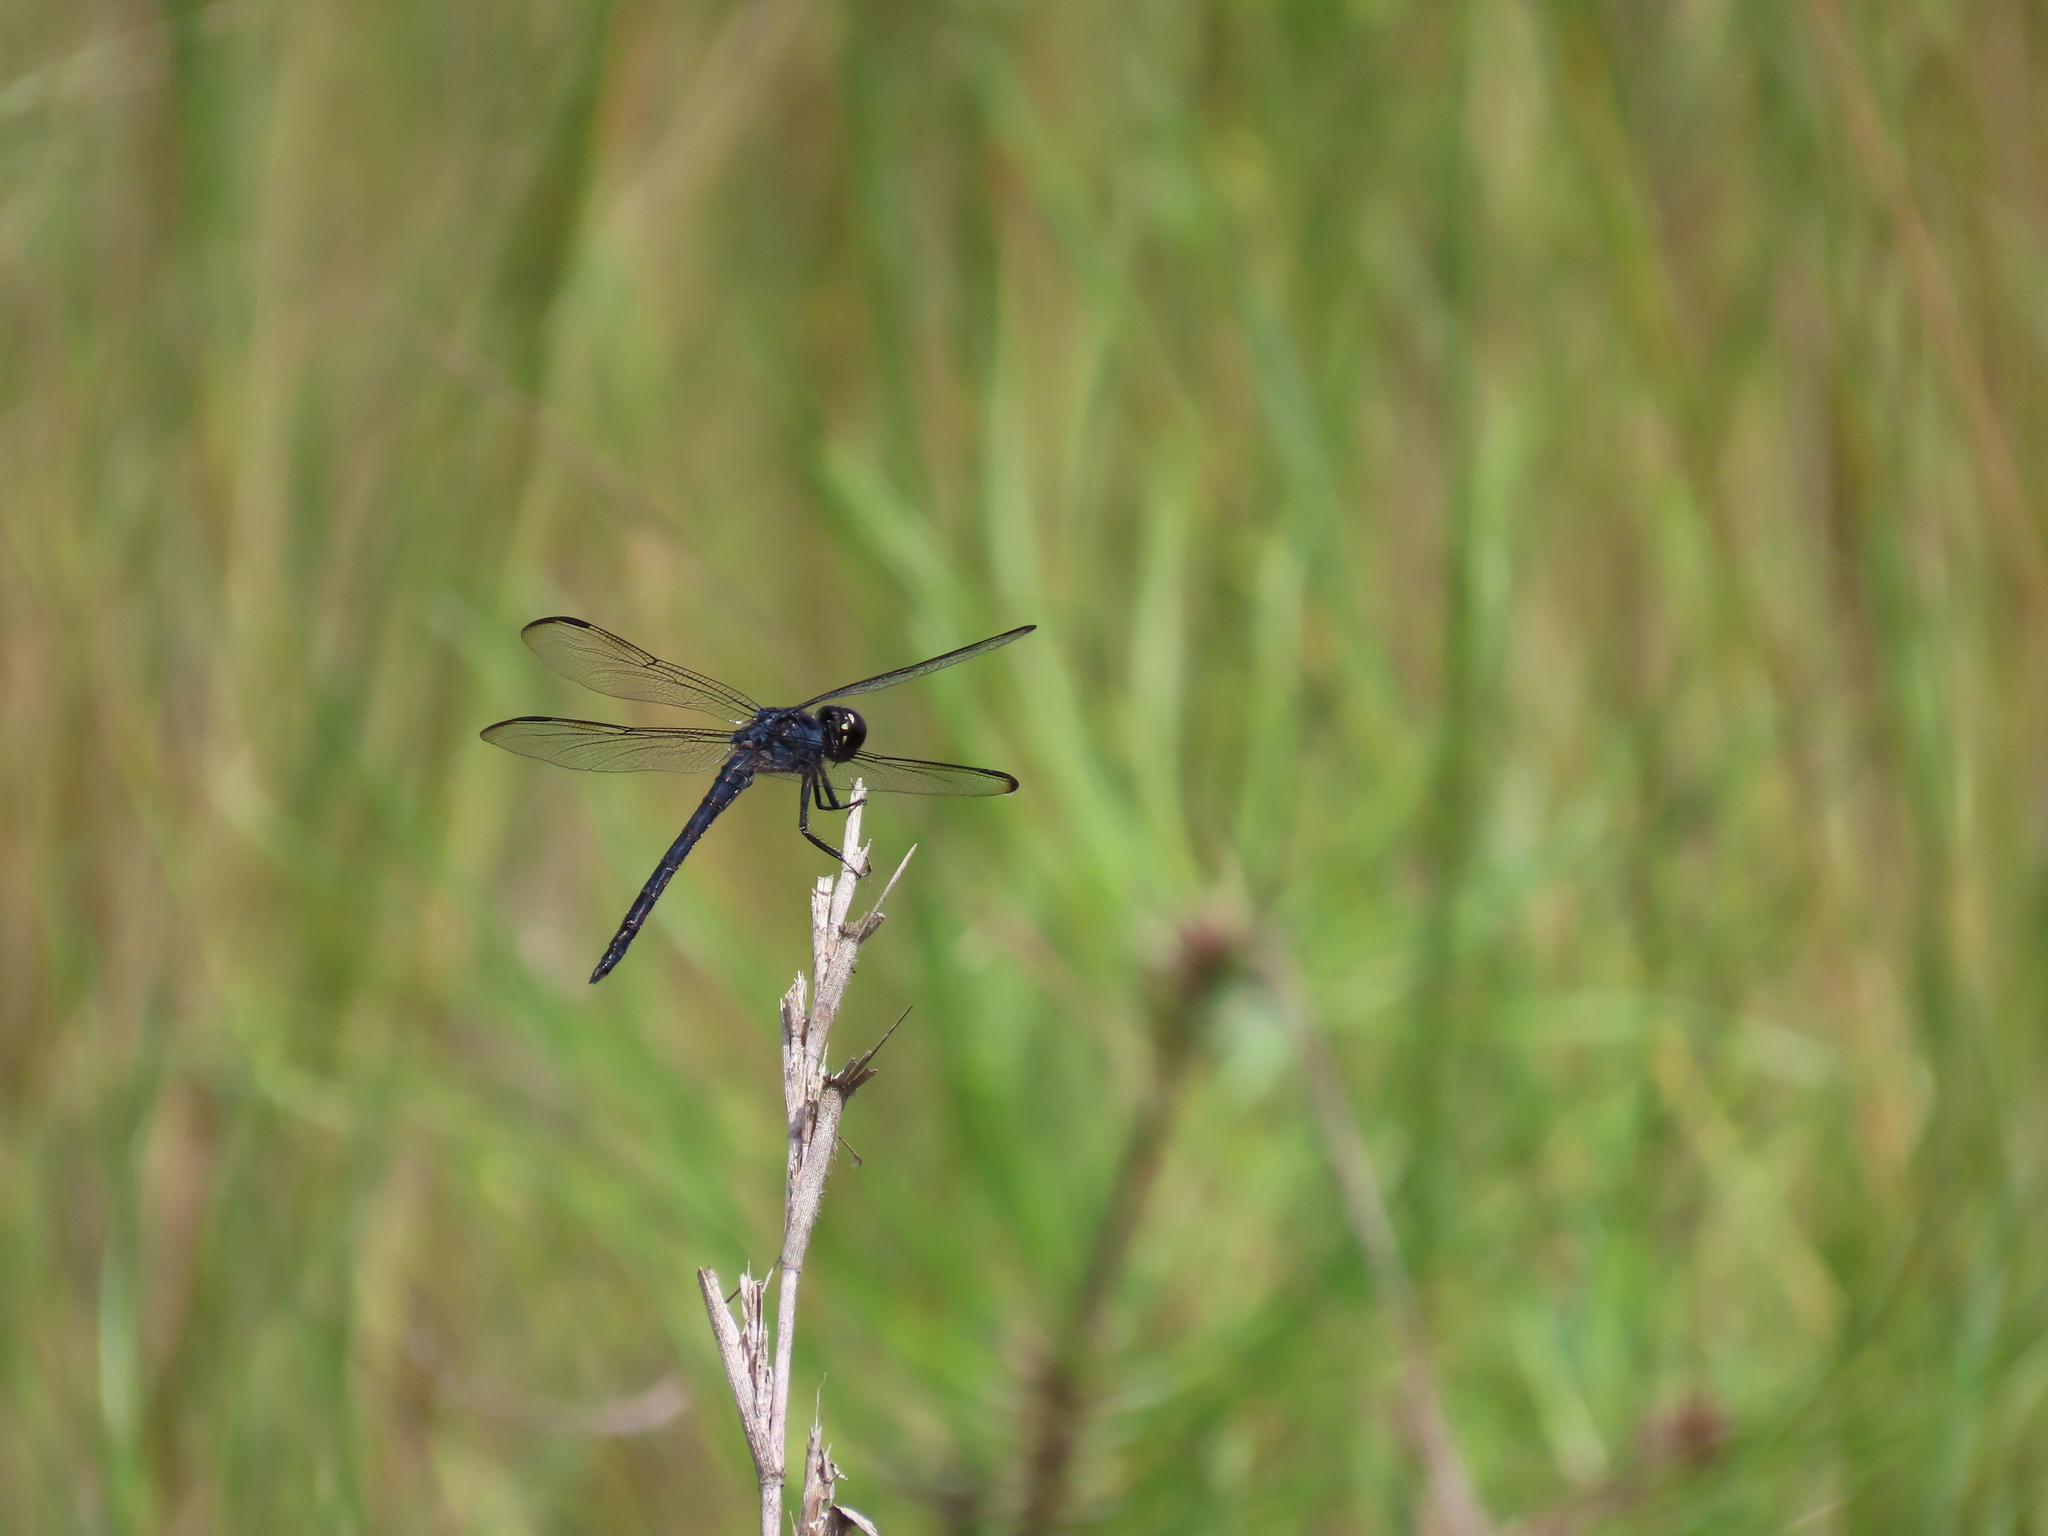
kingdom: Animalia
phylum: Arthropoda
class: Insecta
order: Odonata
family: Libellulidae
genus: Libellula
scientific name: Libellula incesta
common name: Slaty skimmer
